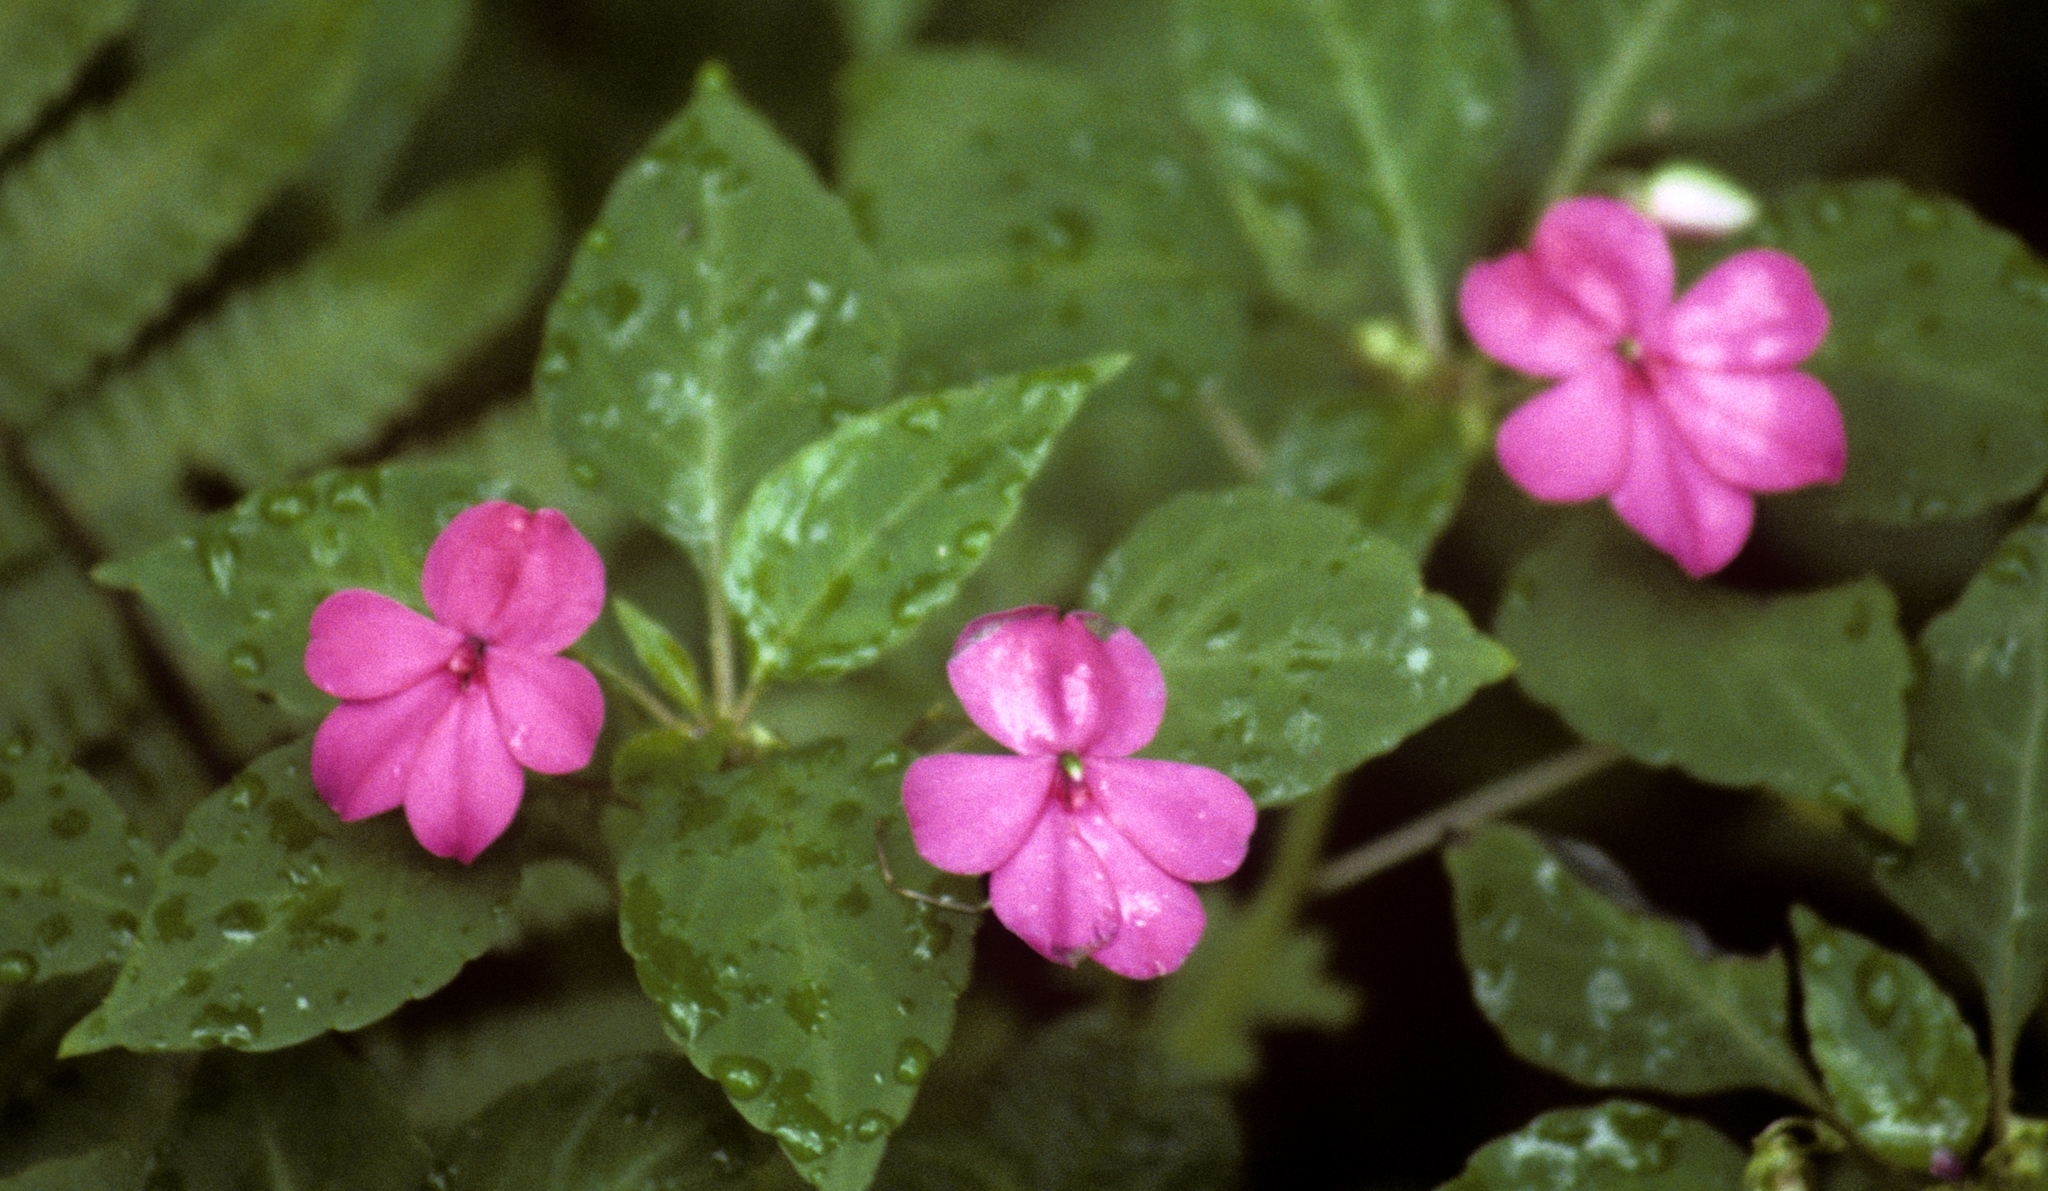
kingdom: Plantae
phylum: Tracheophyta
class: Magnoliopsida
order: Ericales
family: Balsaminaceae
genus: Impatiens
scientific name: Impatiens walleriana
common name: Buzzy lizzy
